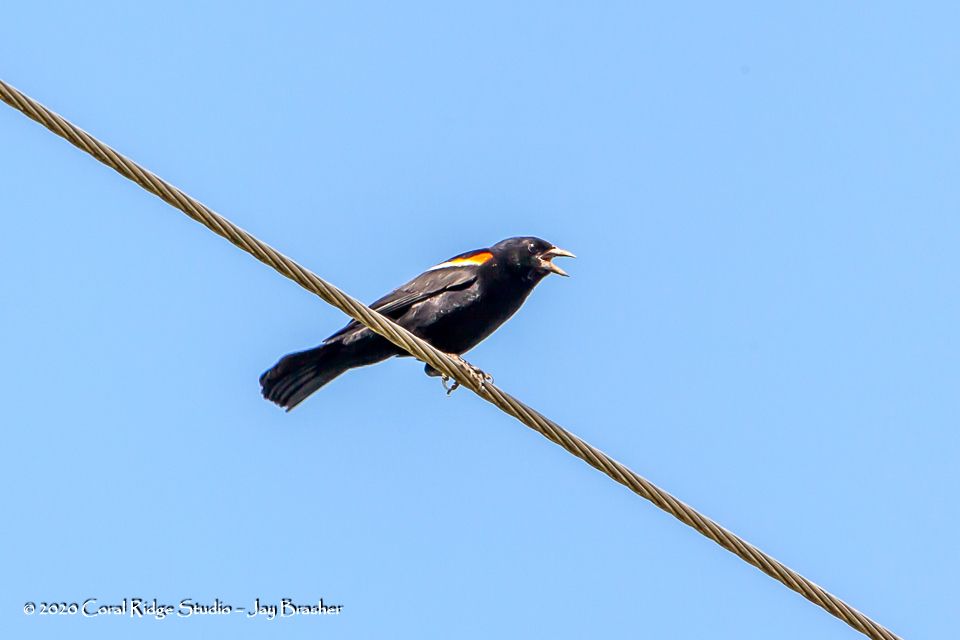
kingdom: Animalia
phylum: Chordata
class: Aves
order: Passeriformes
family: Icteridae
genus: Agelaius
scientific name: Agelaius phoeniceus
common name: Red-winged blackbird
